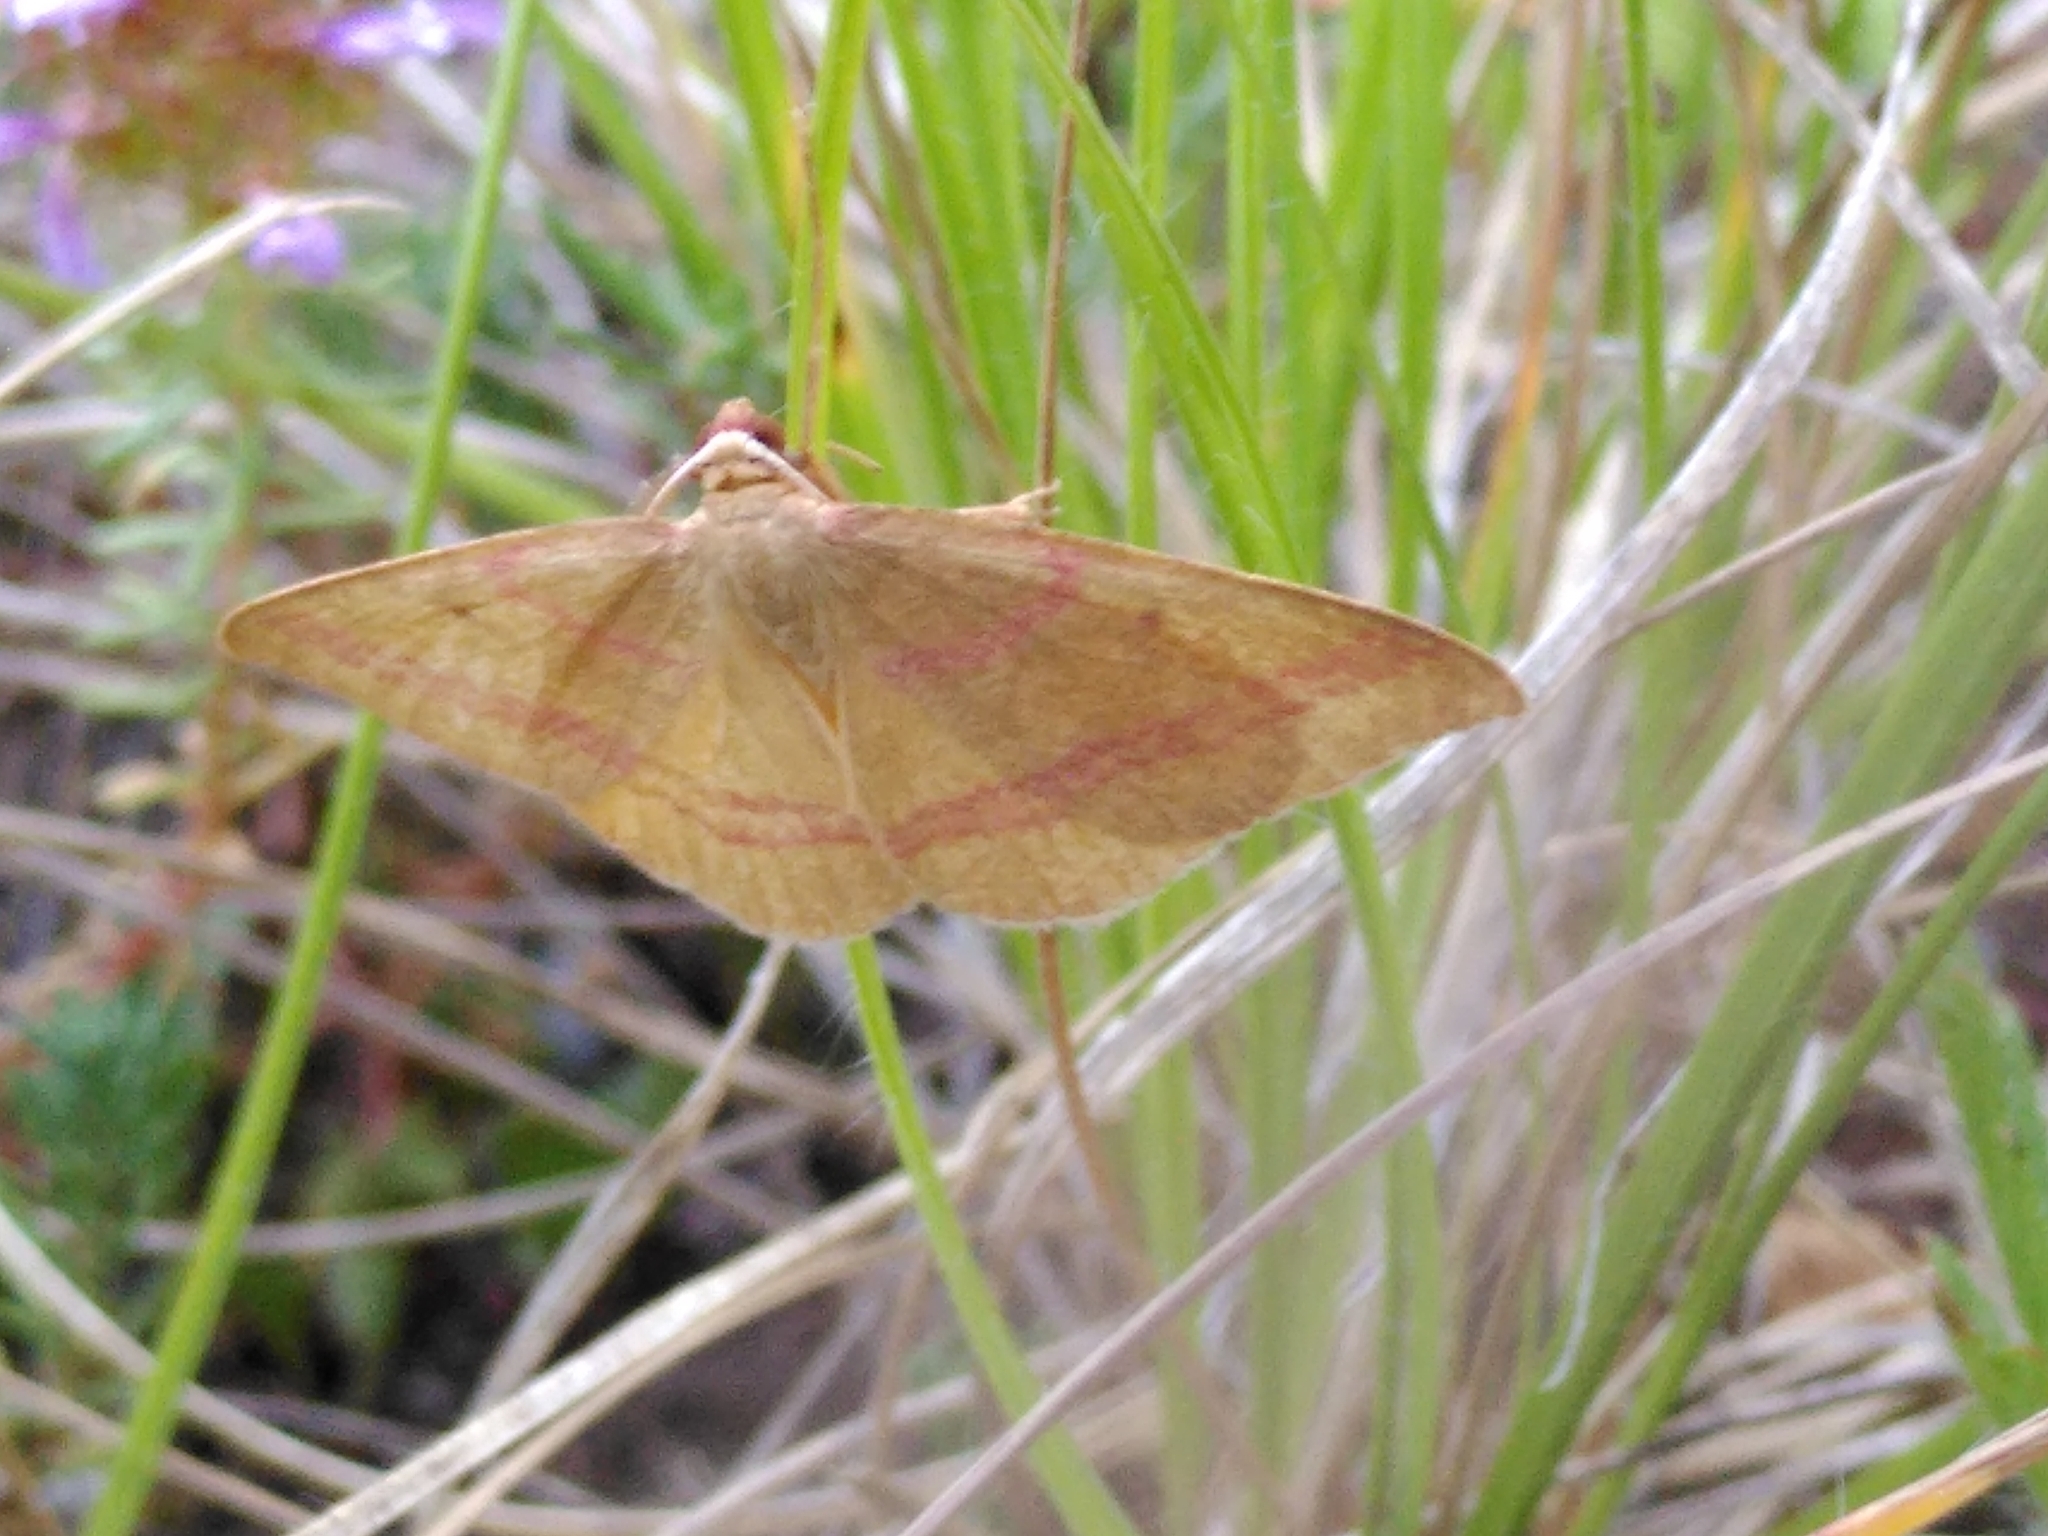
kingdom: Animalia
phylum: Arthropoda
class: Insecta
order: Lepidoptera
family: Geometridae
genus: Rhodostrophia
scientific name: Rhodostrophia calabra
